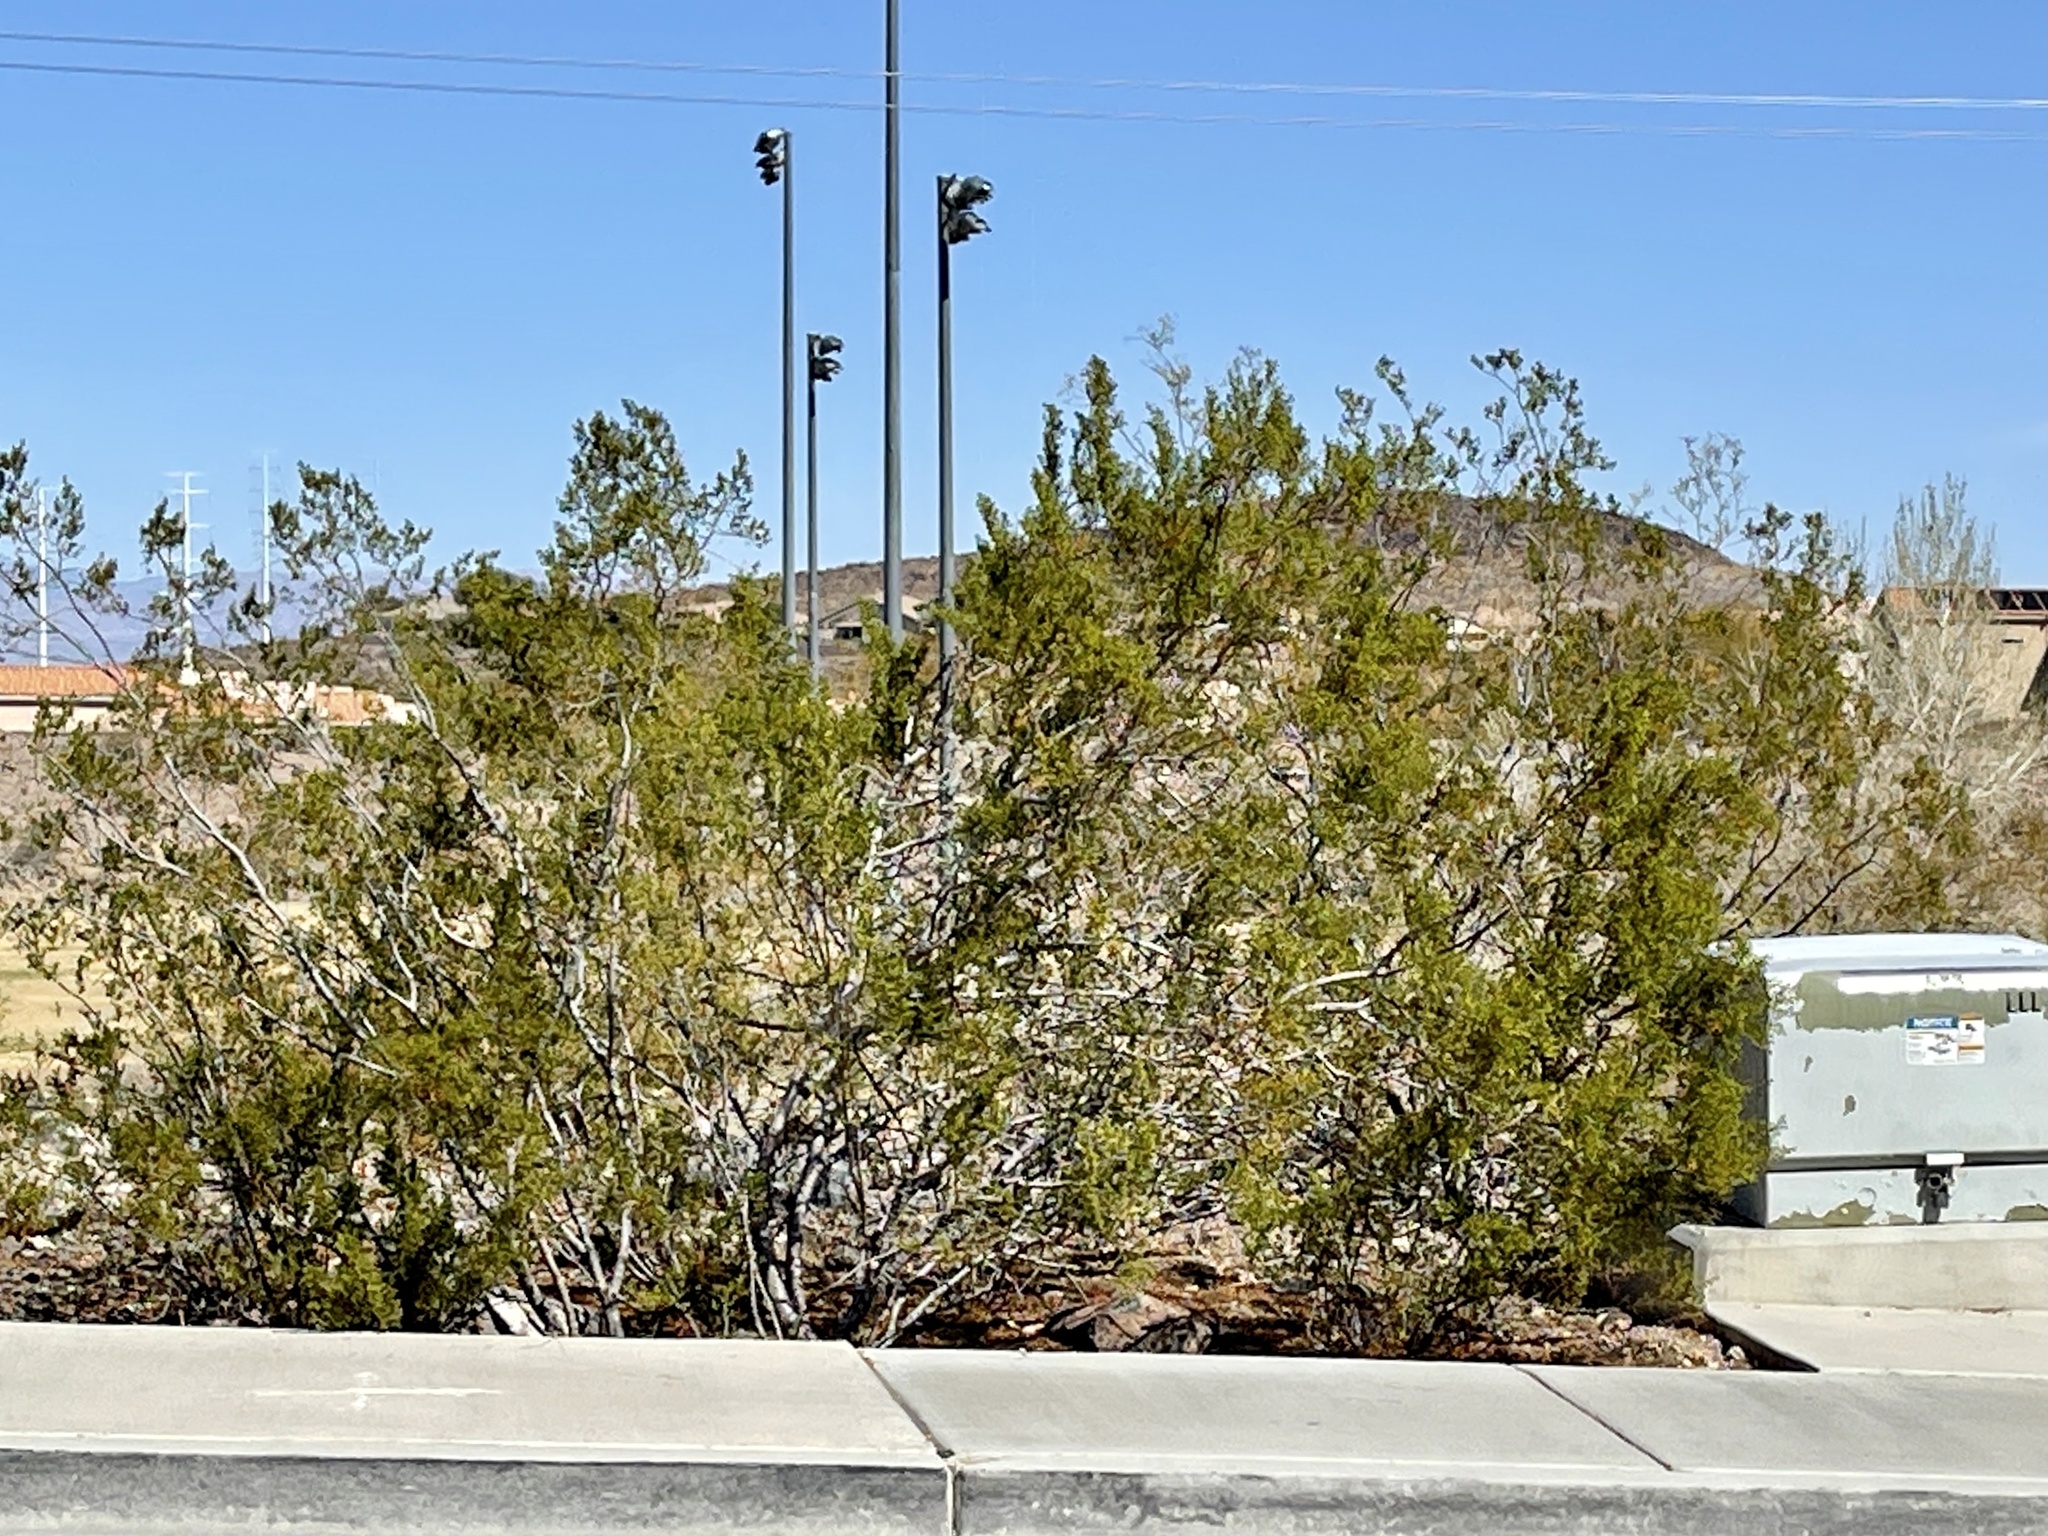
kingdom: Plantae
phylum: Tracheophyta
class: Magnoliopsida
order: Zygophyllales
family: Zygophyllaceae
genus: Larrea
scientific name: Larrea tridentata
